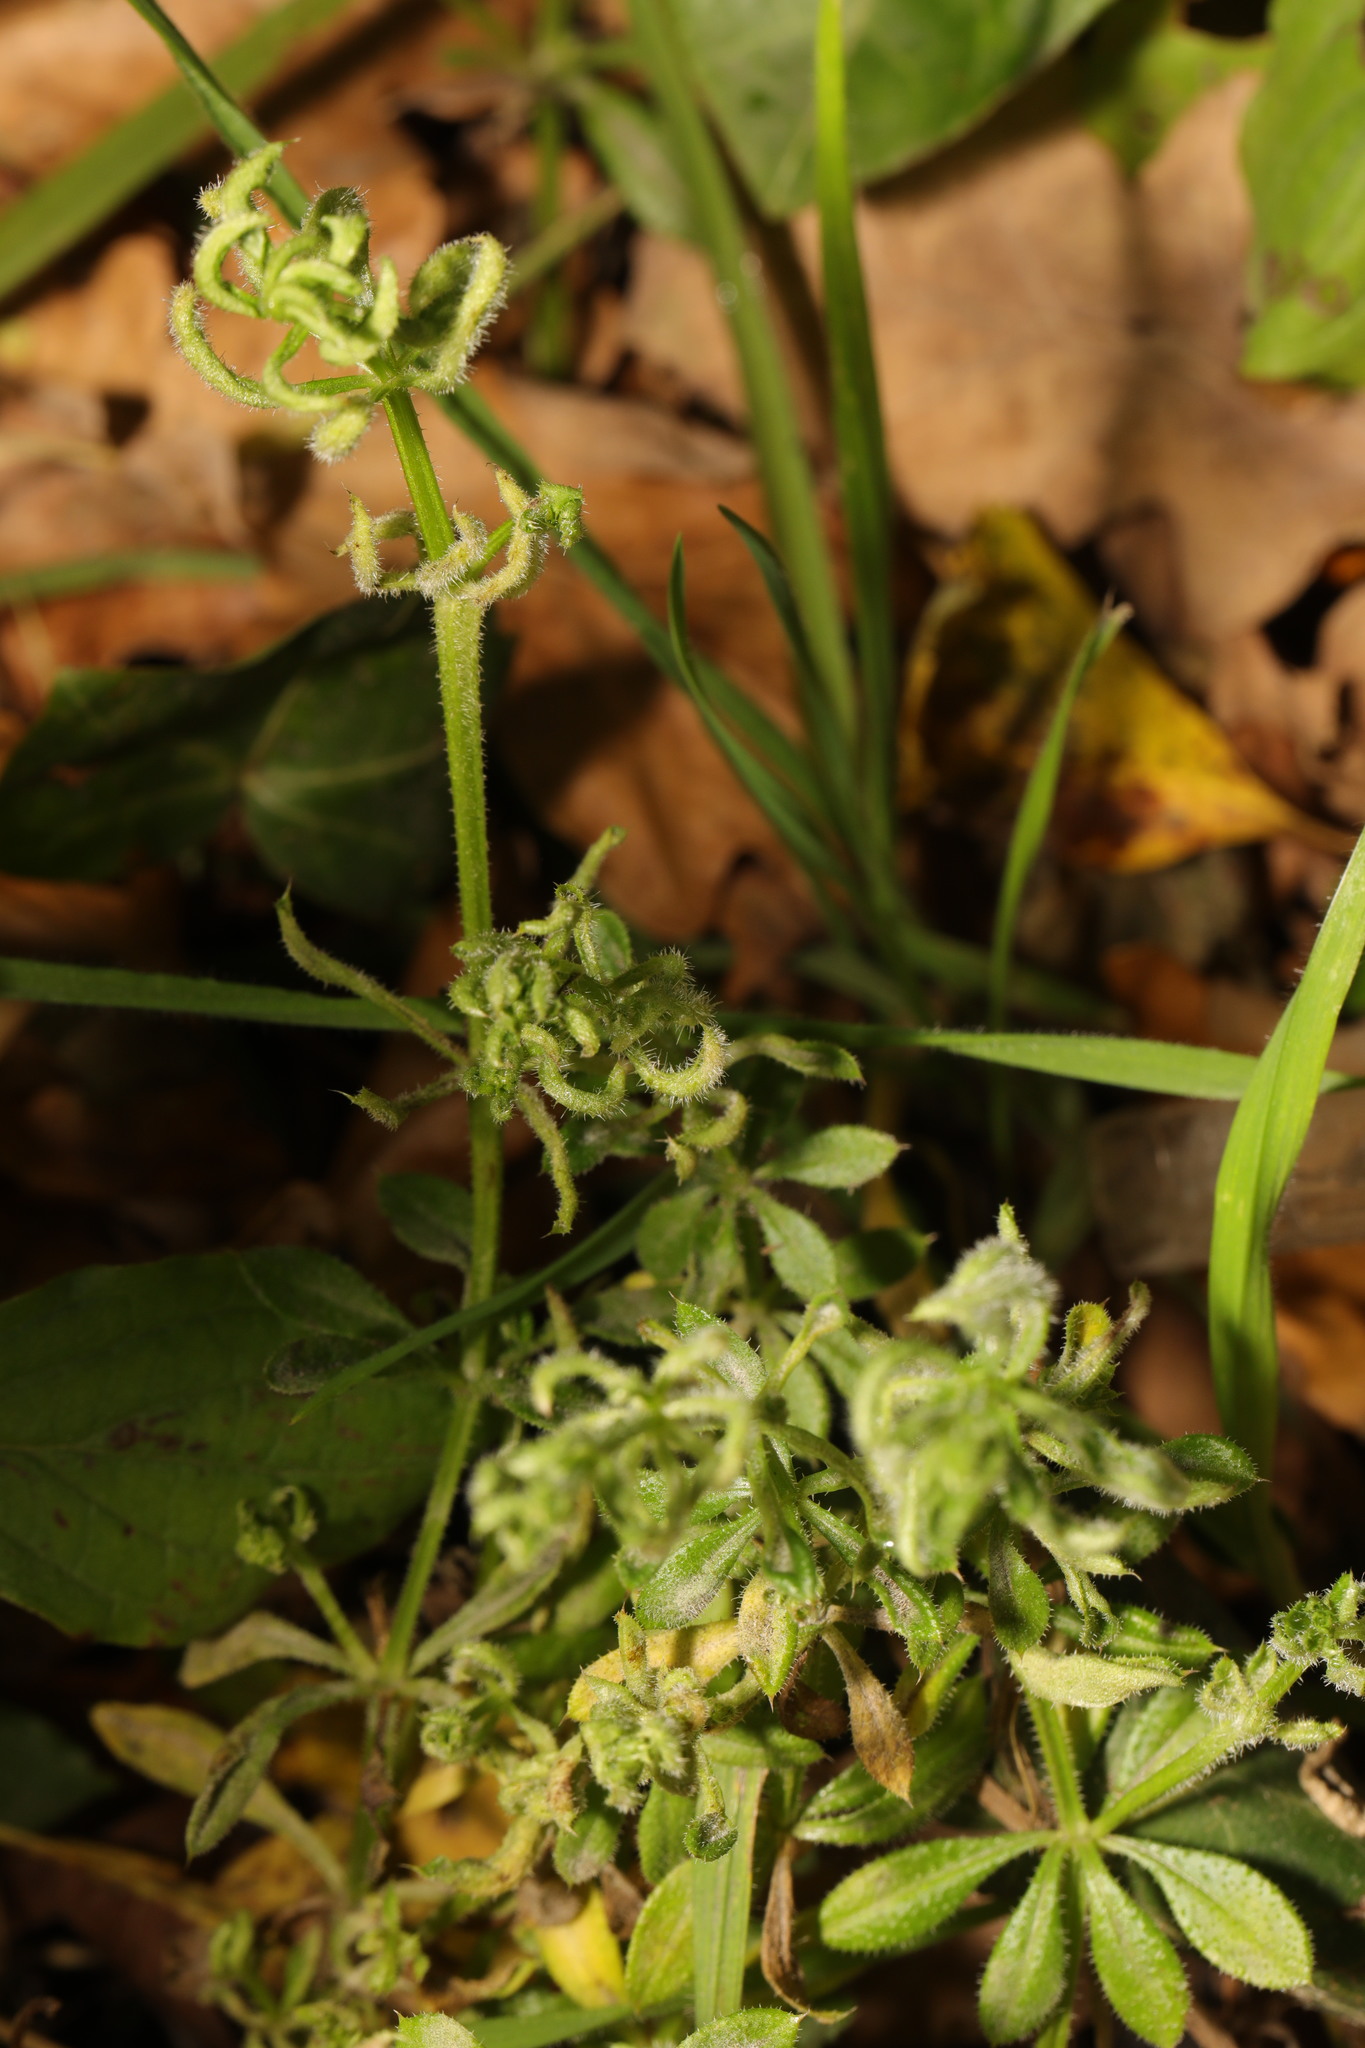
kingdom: Animalia
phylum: Arthropoda
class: Arachnida
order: Trombidiformes
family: Eriophyidae
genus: Cecidophyes
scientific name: Cecidophyes rouhollahi
